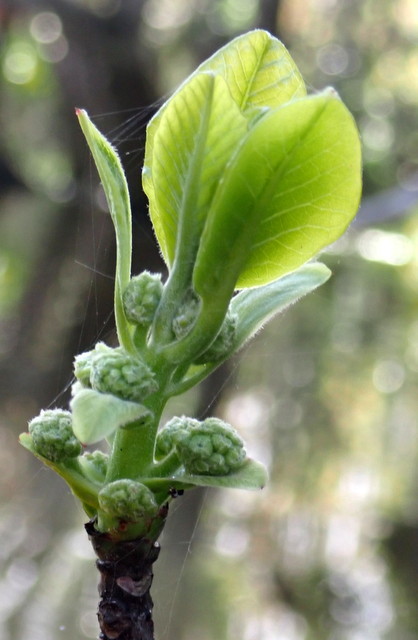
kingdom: Plantae
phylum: Tracheophyta
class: Magnoliopsida
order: Cornales
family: Nyssaceae
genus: Nyssa
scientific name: Nyssa ogeche
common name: Ogeechee tupelo
